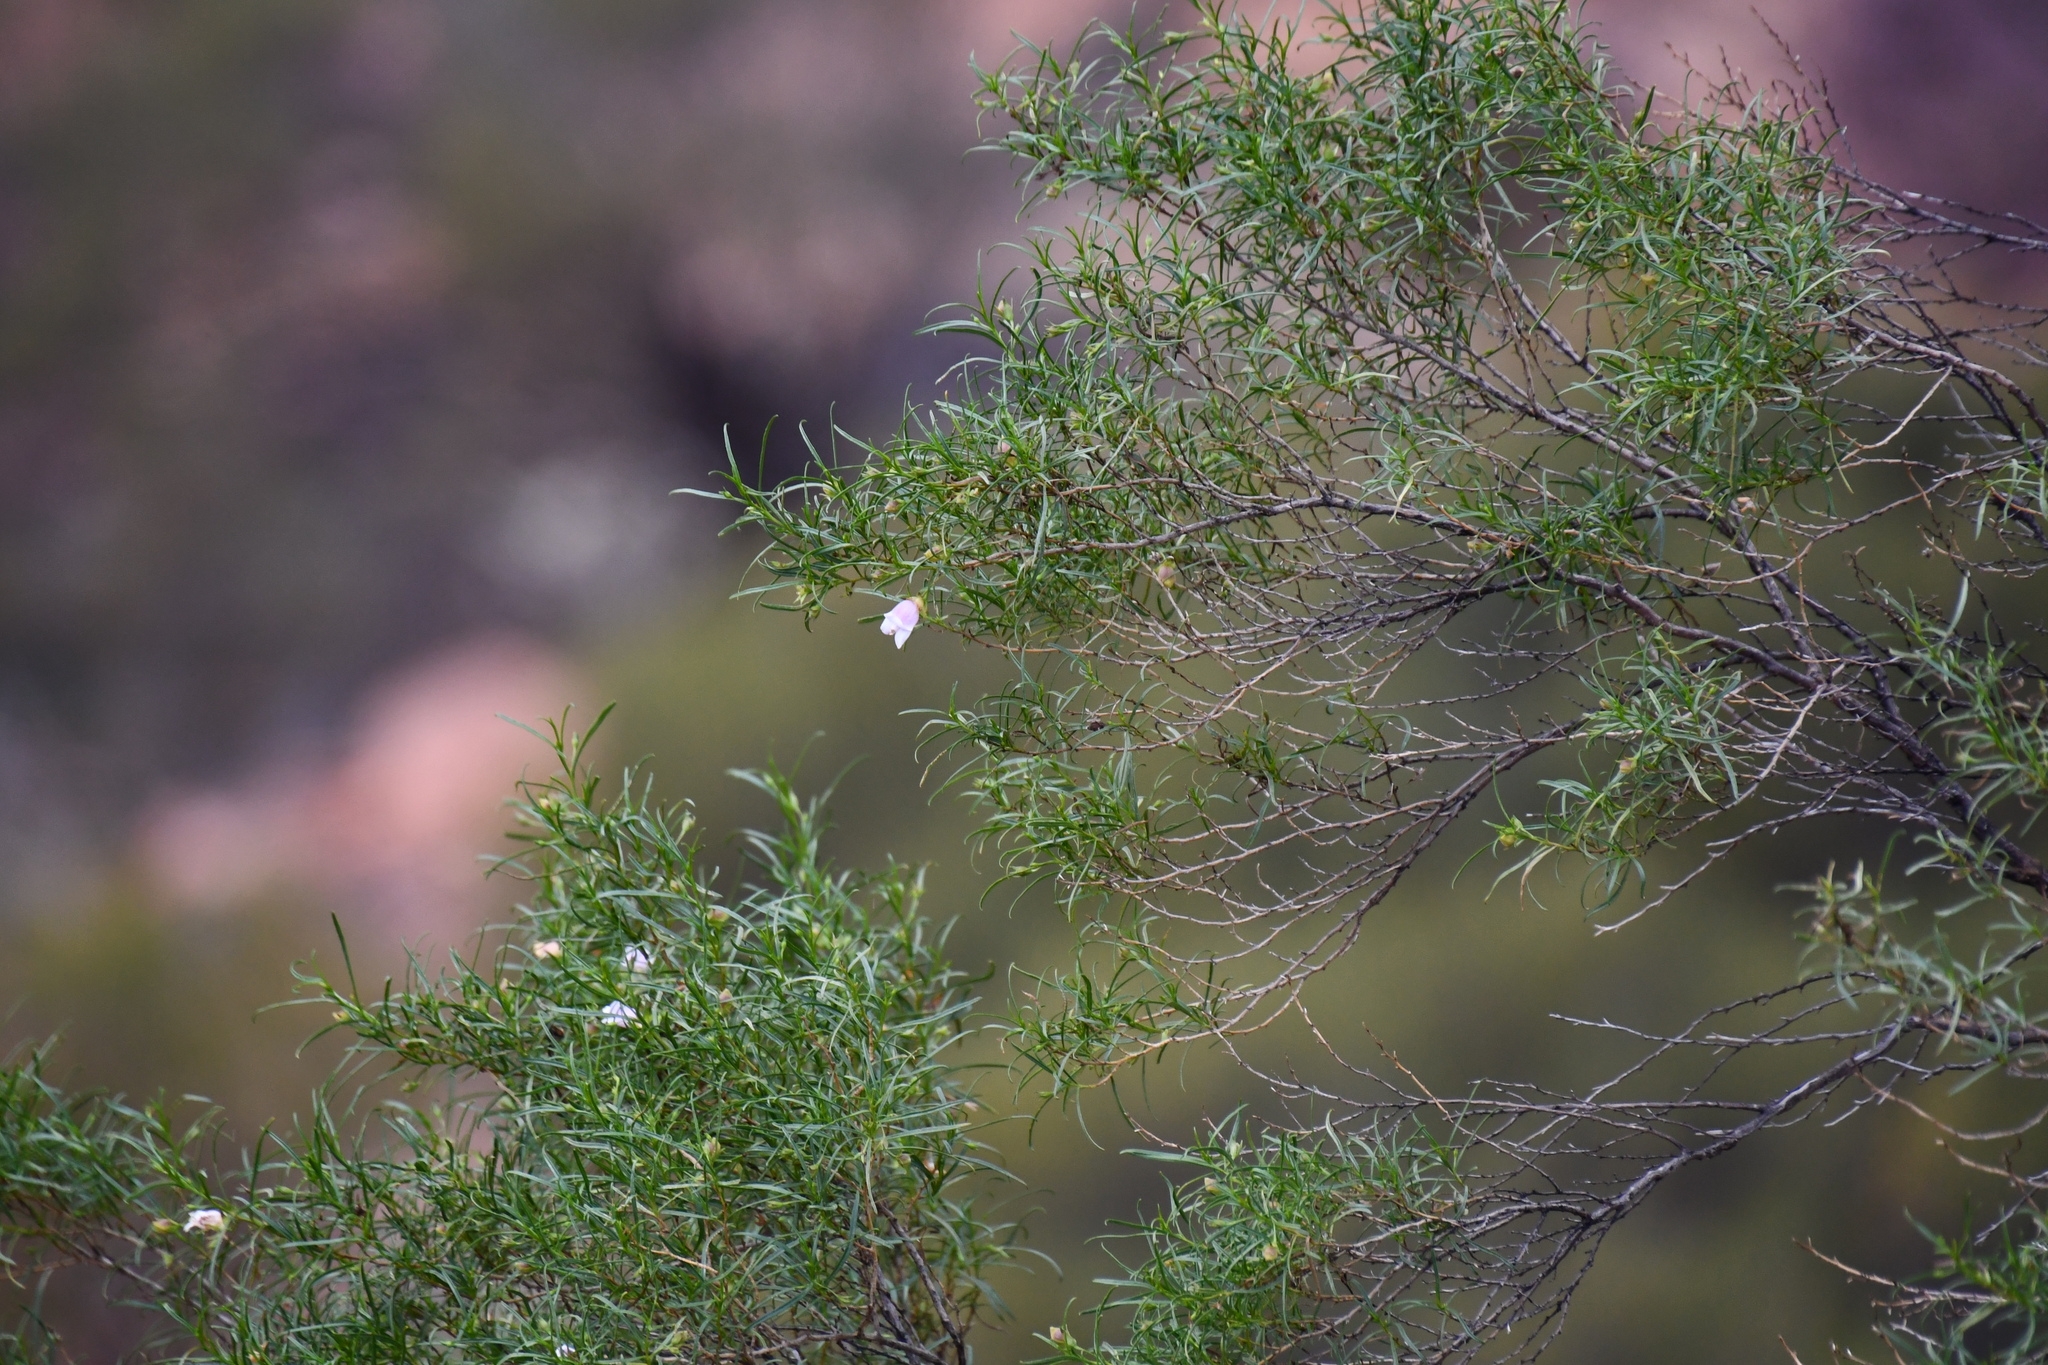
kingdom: Plantae
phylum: Tracheophyta
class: Magnoliopsida
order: Lamiales
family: Scrophulariaceae
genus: Eremophila
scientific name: Eremophila clarkei
